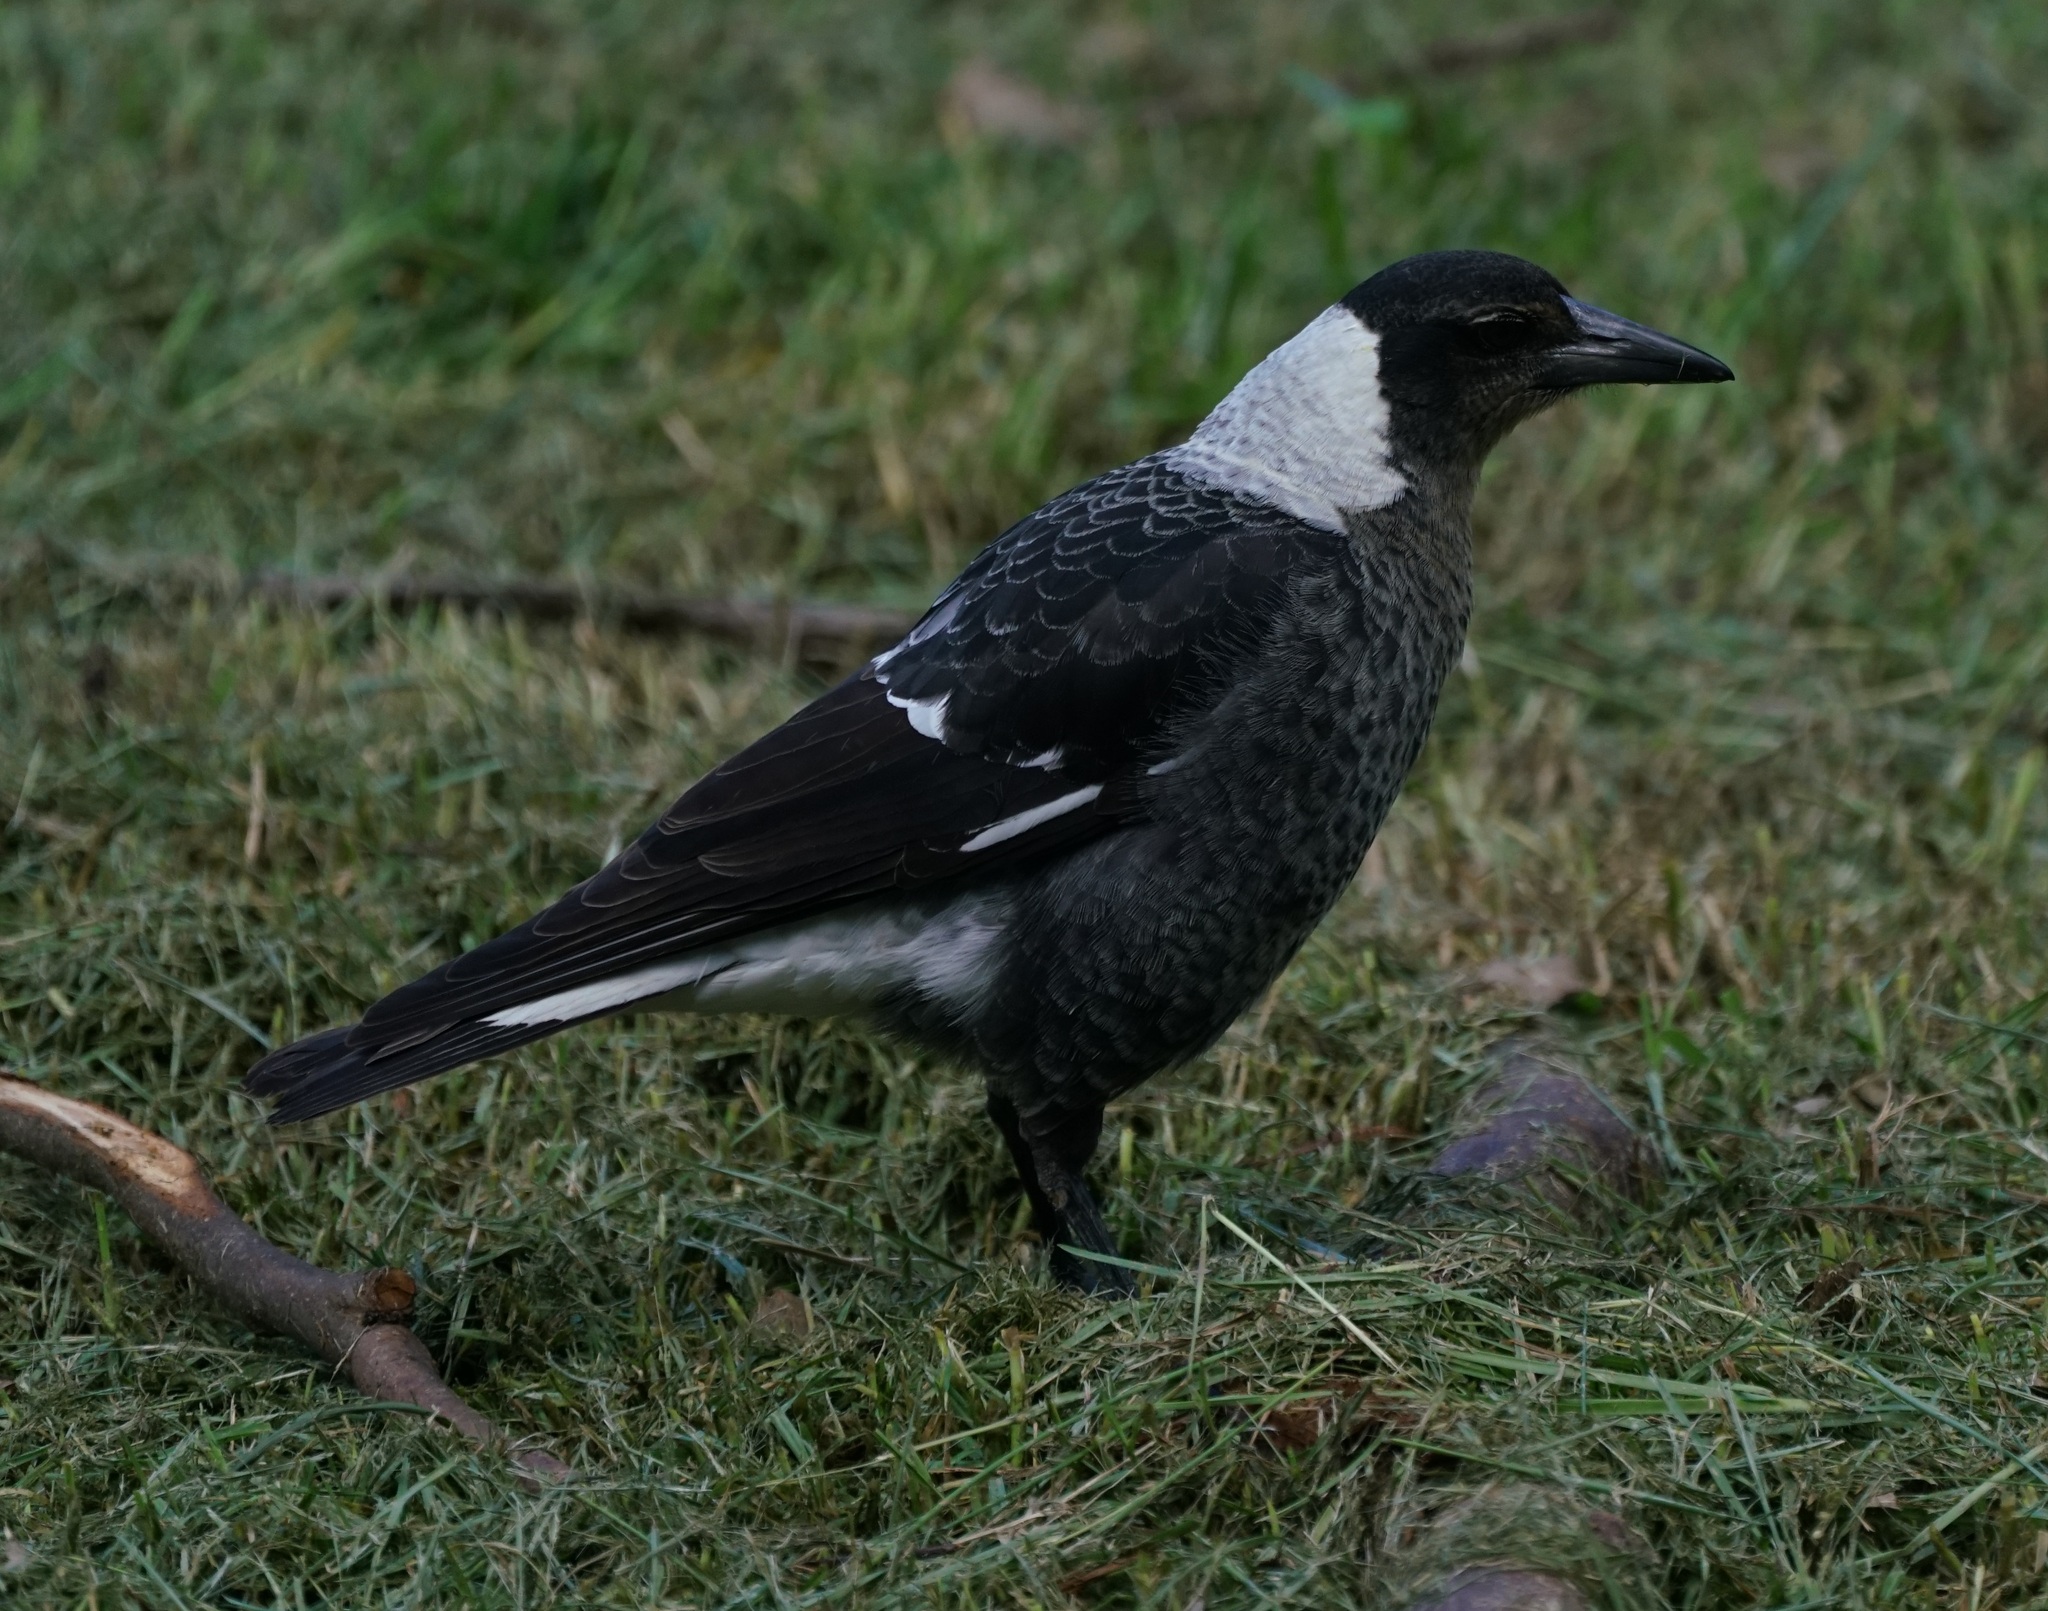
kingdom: Animalia
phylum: Chordata
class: Aves
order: Passeriformes
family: Cracticidae
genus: Gymnorhina
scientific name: Gymnorhina tibicen
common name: Australian magpie
